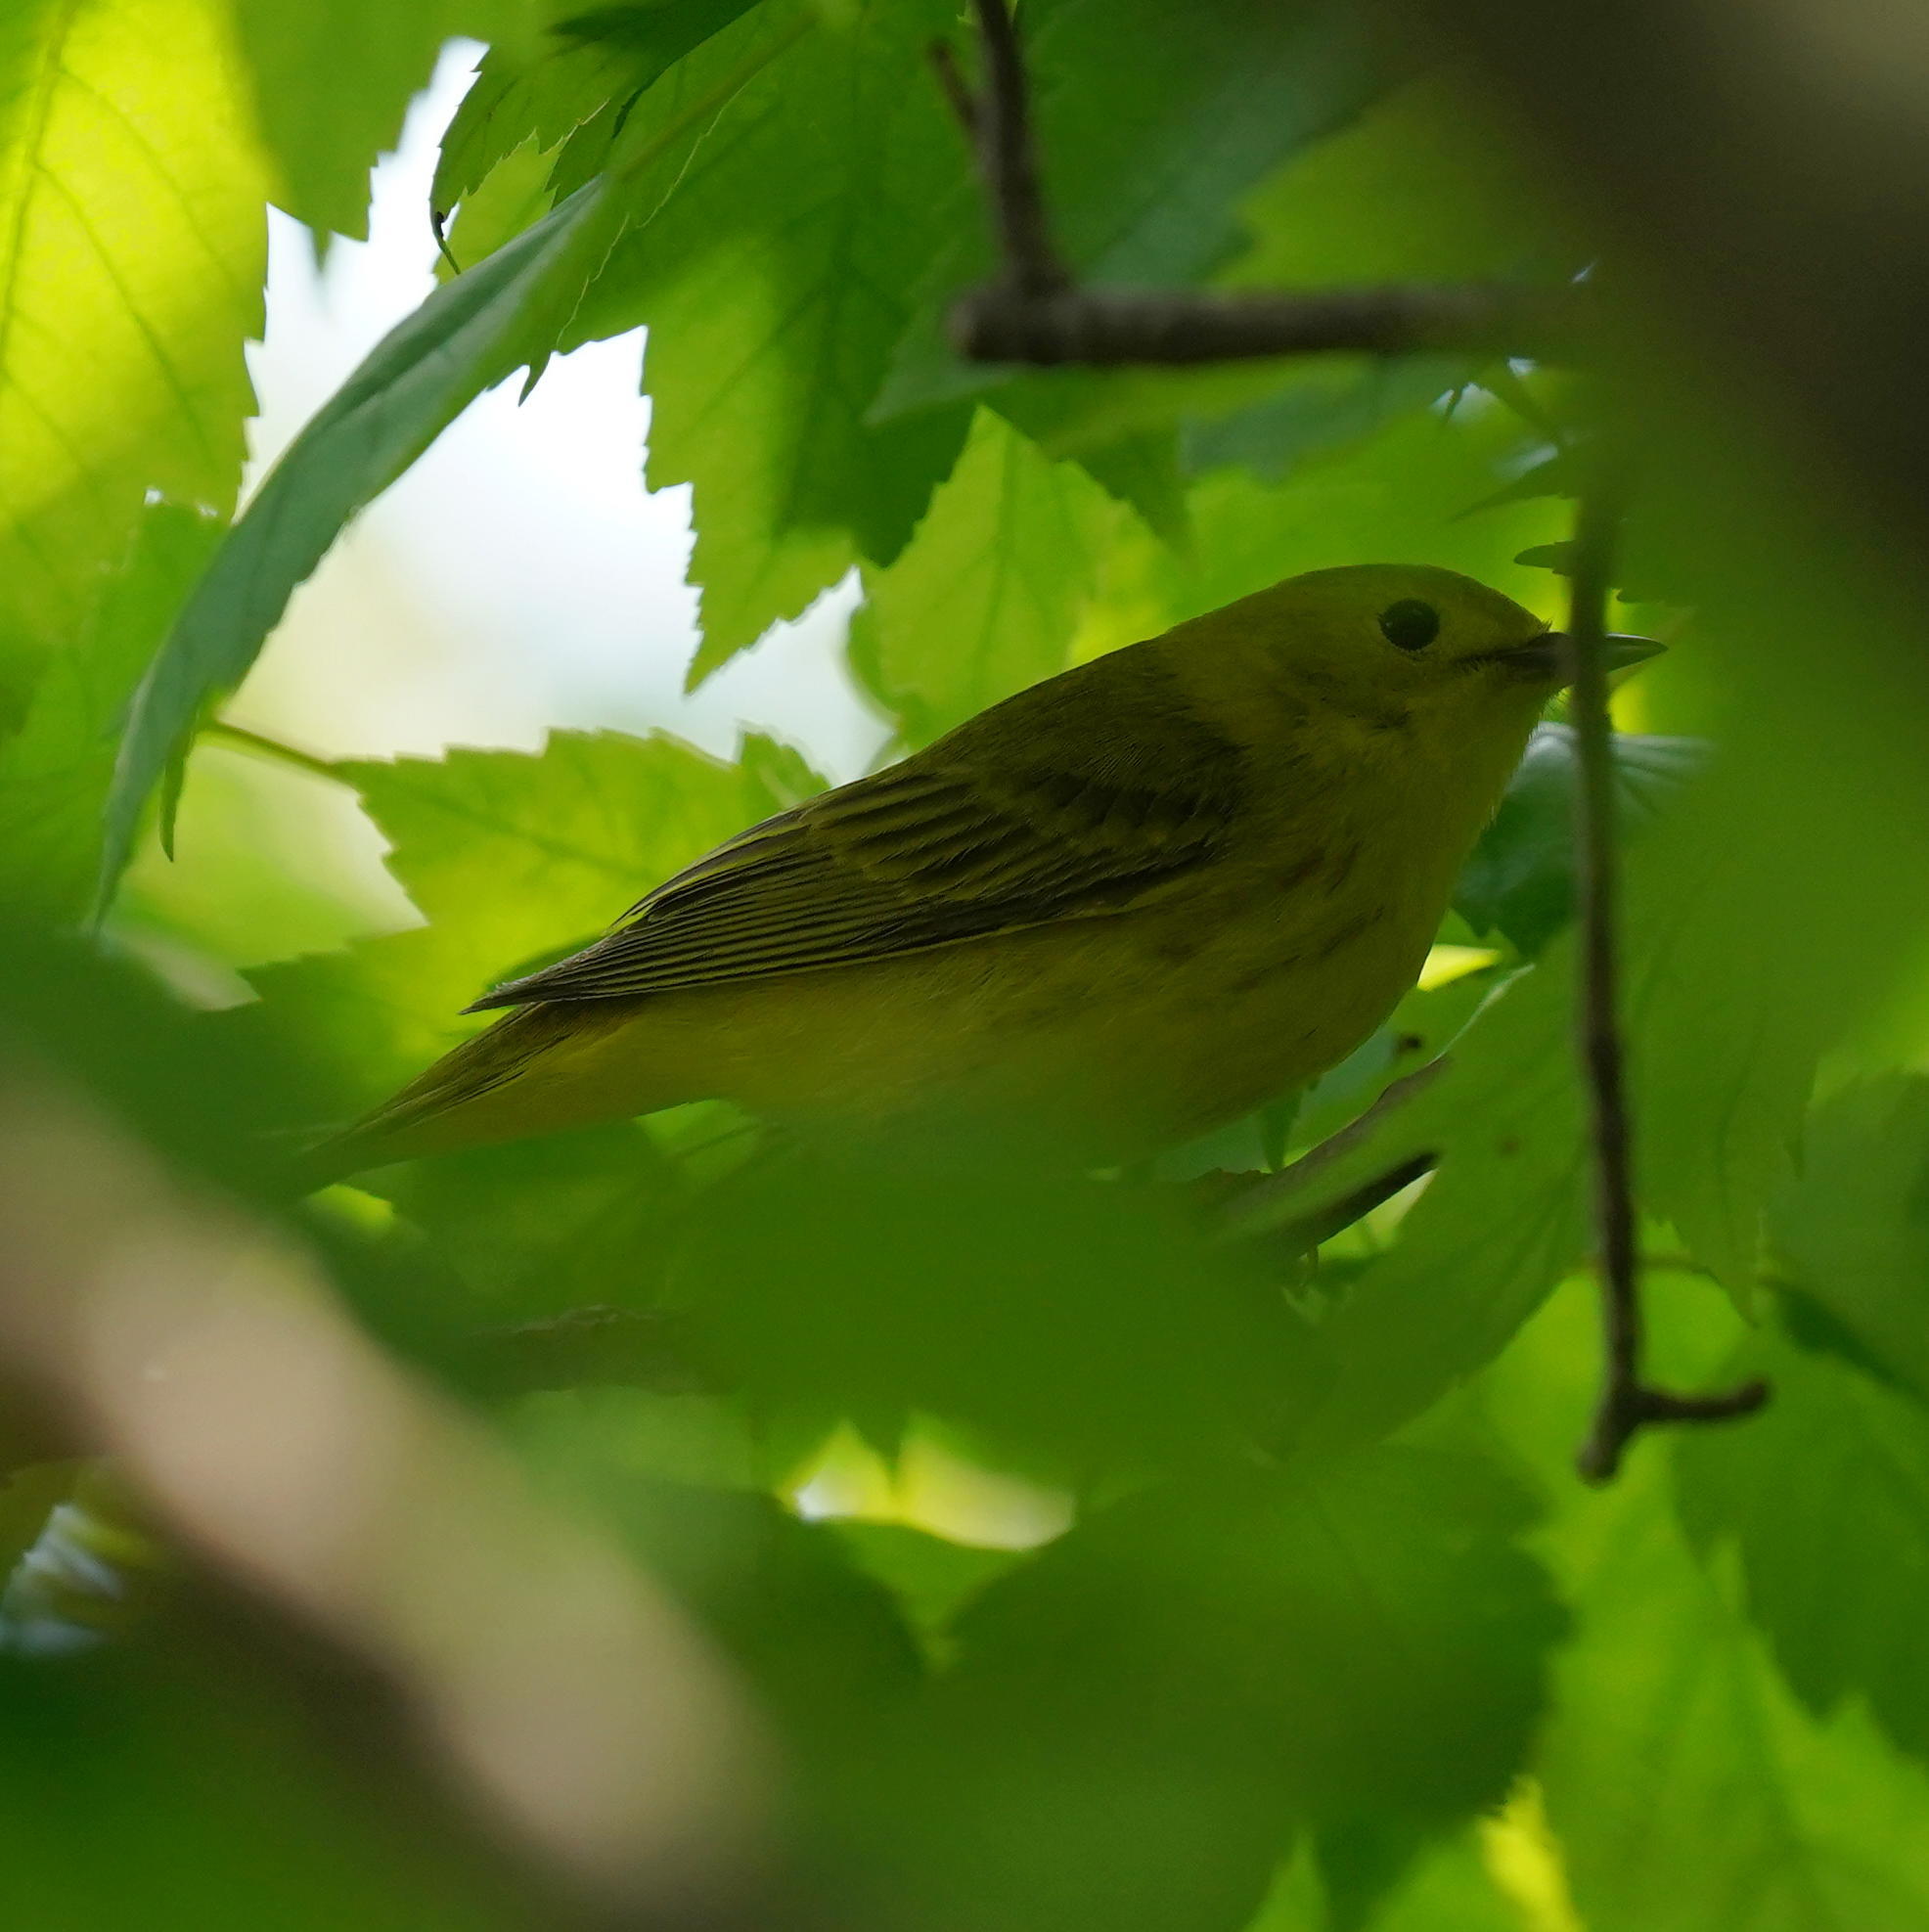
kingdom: Animalia
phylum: Chordata
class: Aves
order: Passeriformes
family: Parulidae
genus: Setophaga
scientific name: Setophaga petechia
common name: Yellow warbler
